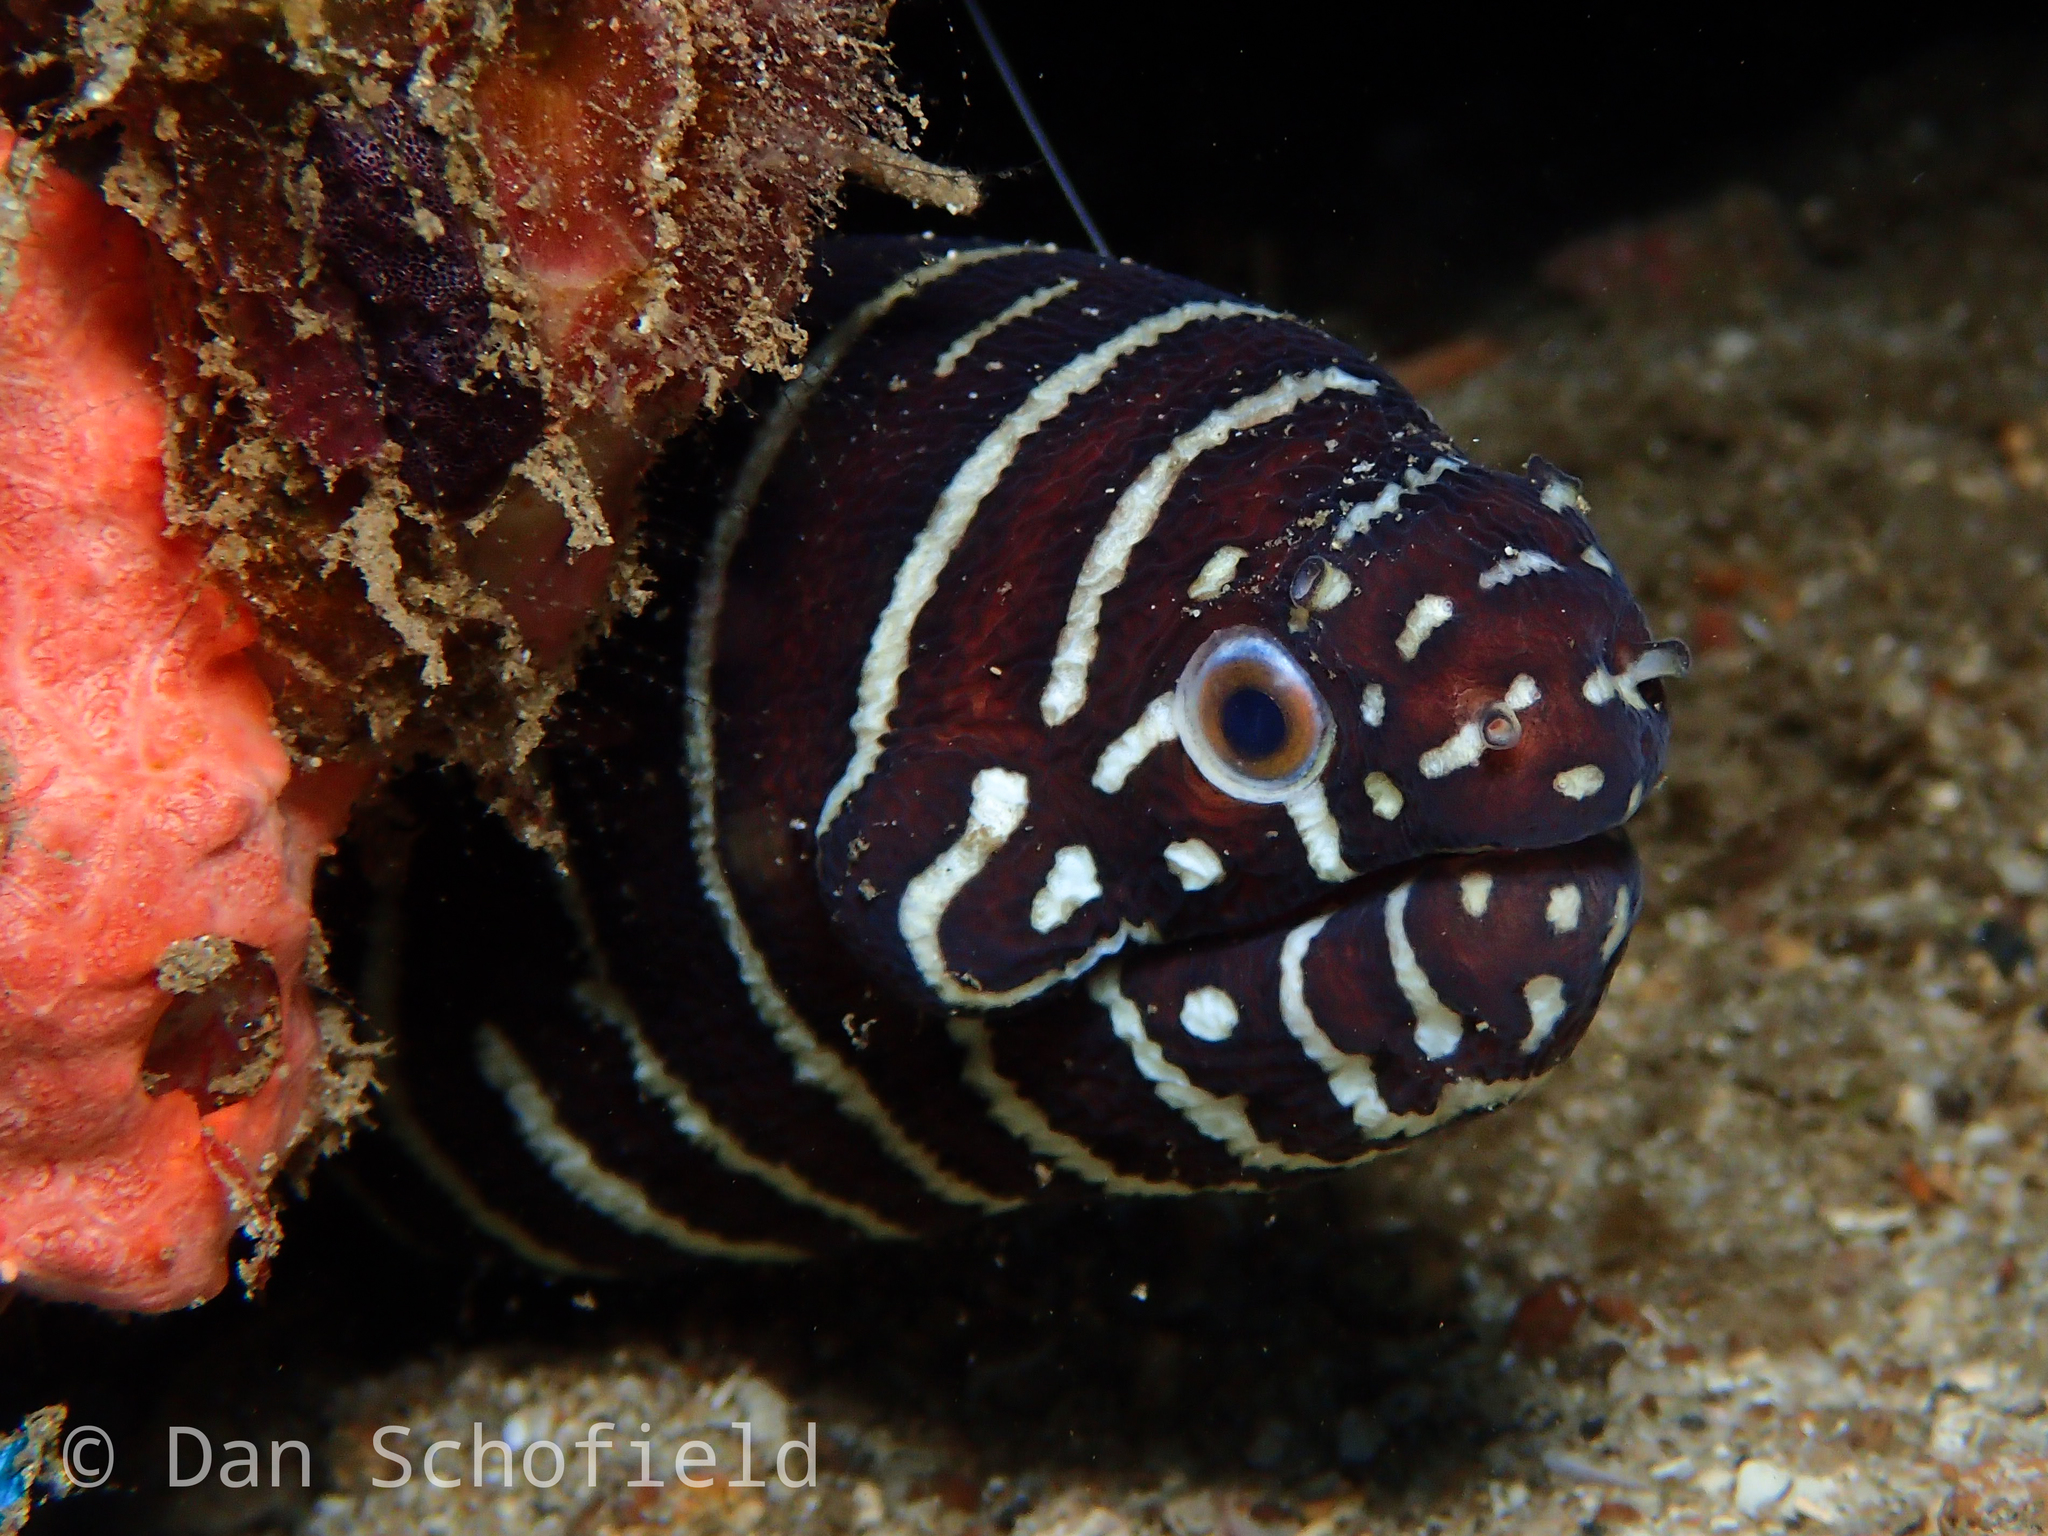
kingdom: Animalia
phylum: Chordata
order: Anguilliformes
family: Muraenidae
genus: Gymnomuraena
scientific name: Gymnomuraena zebra
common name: Zebra moray
